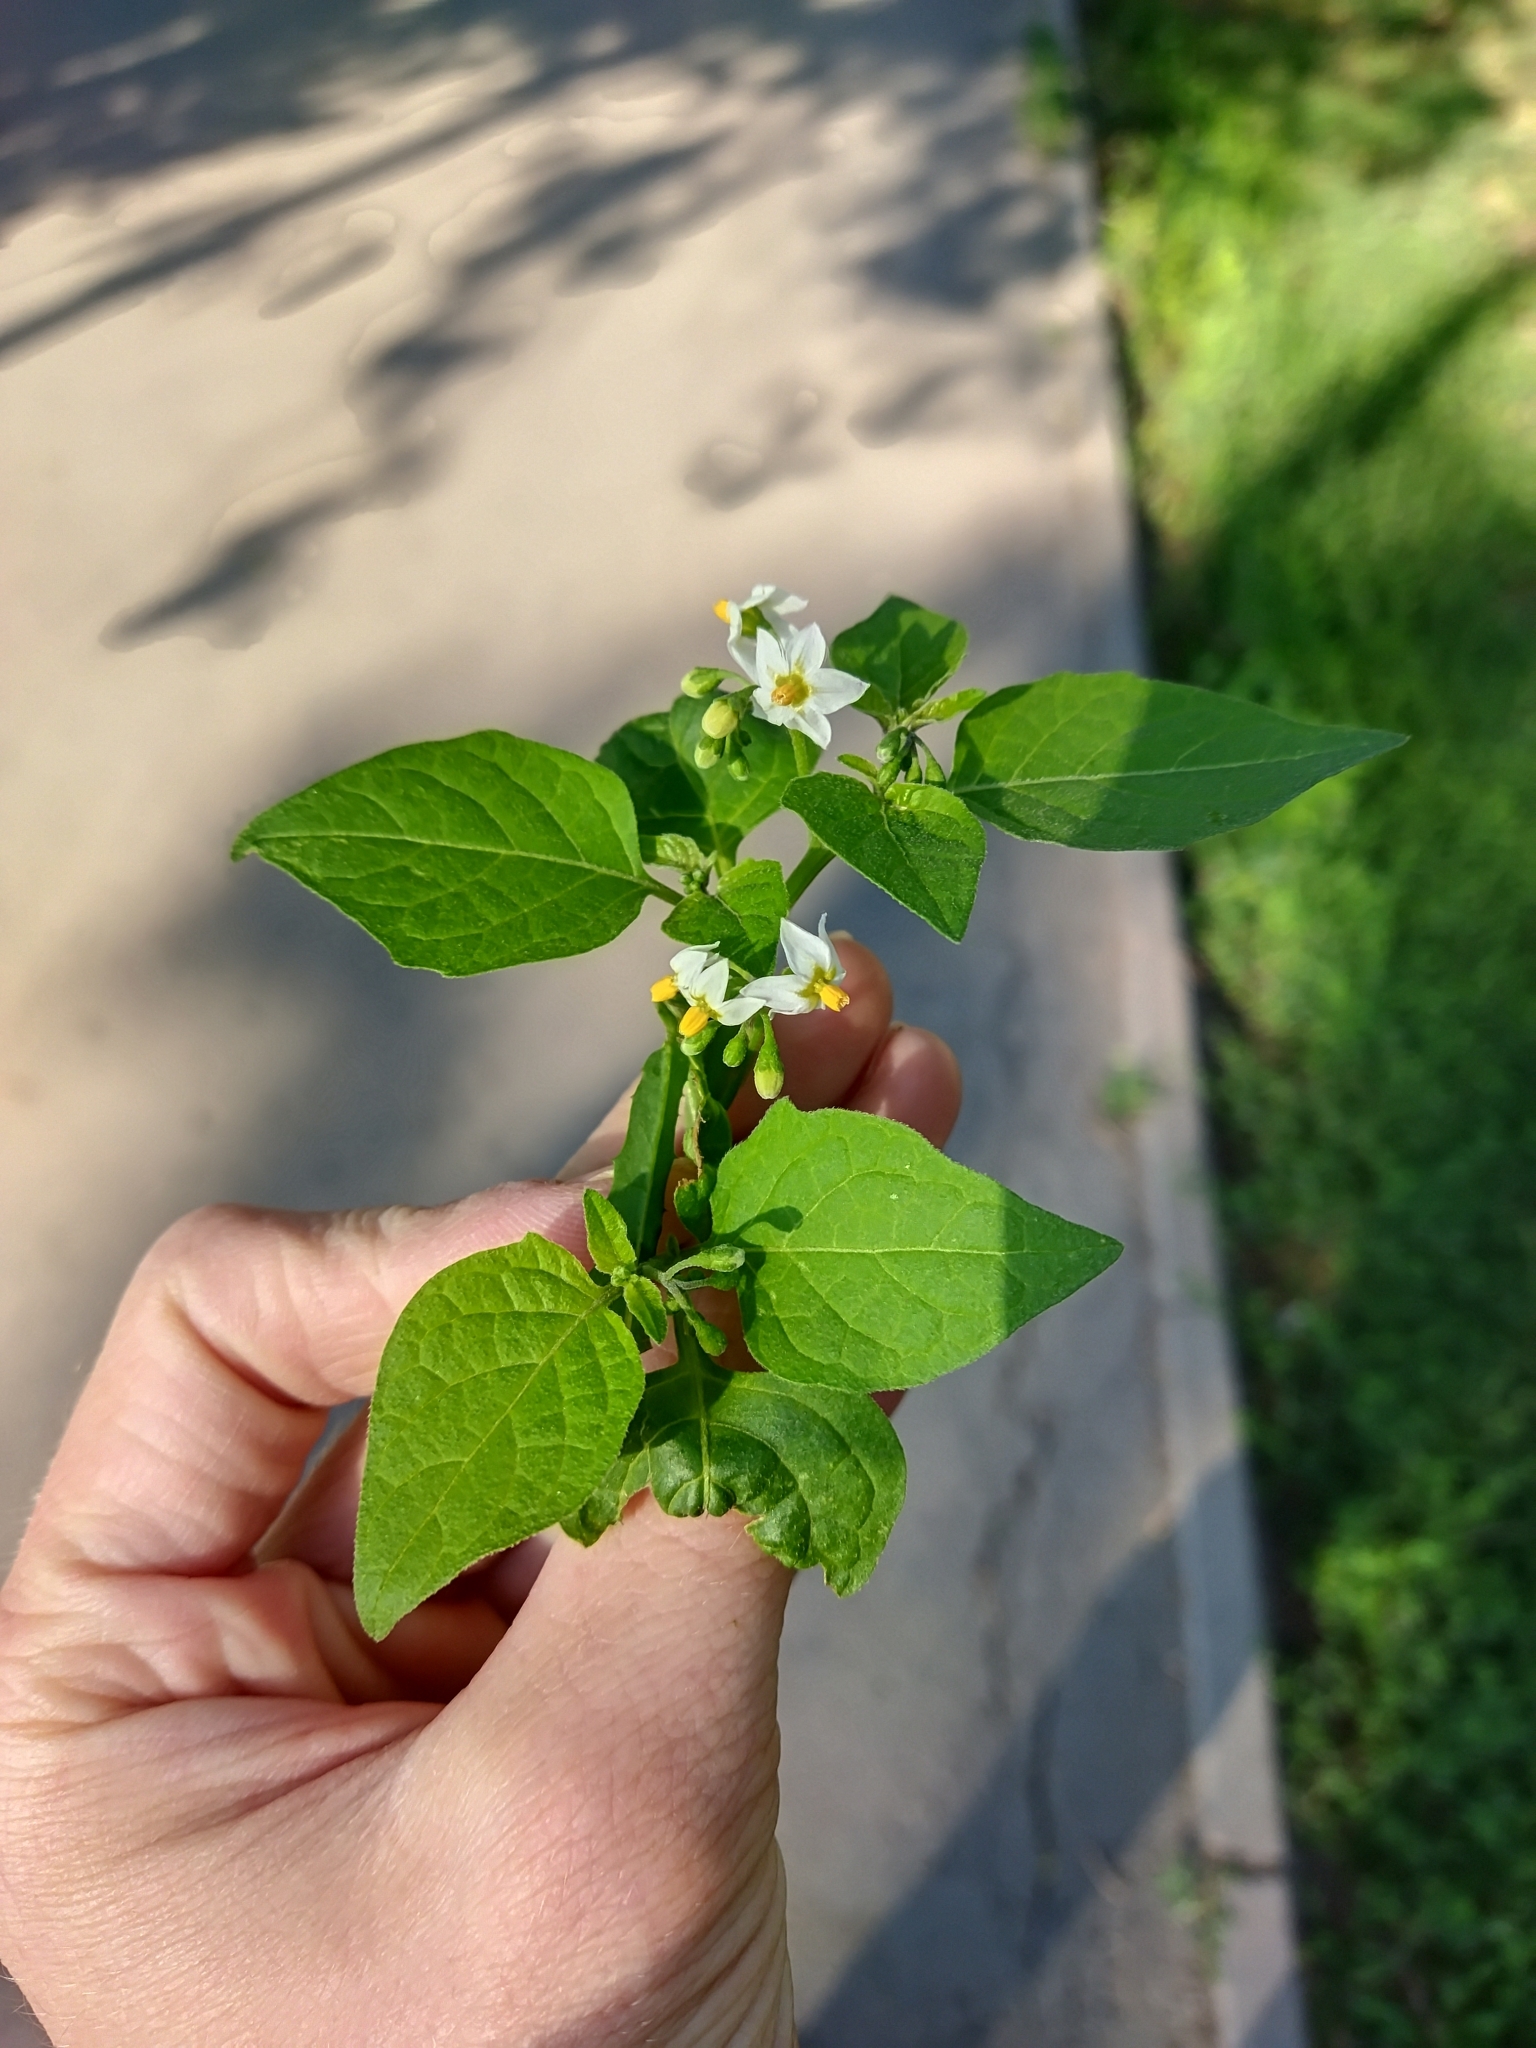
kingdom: Plantae
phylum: Tracheophyta
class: Magnoliopsida
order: Solanales
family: Solanaceae
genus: Solanum
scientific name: Solanum nigrum
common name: Black nightshade
